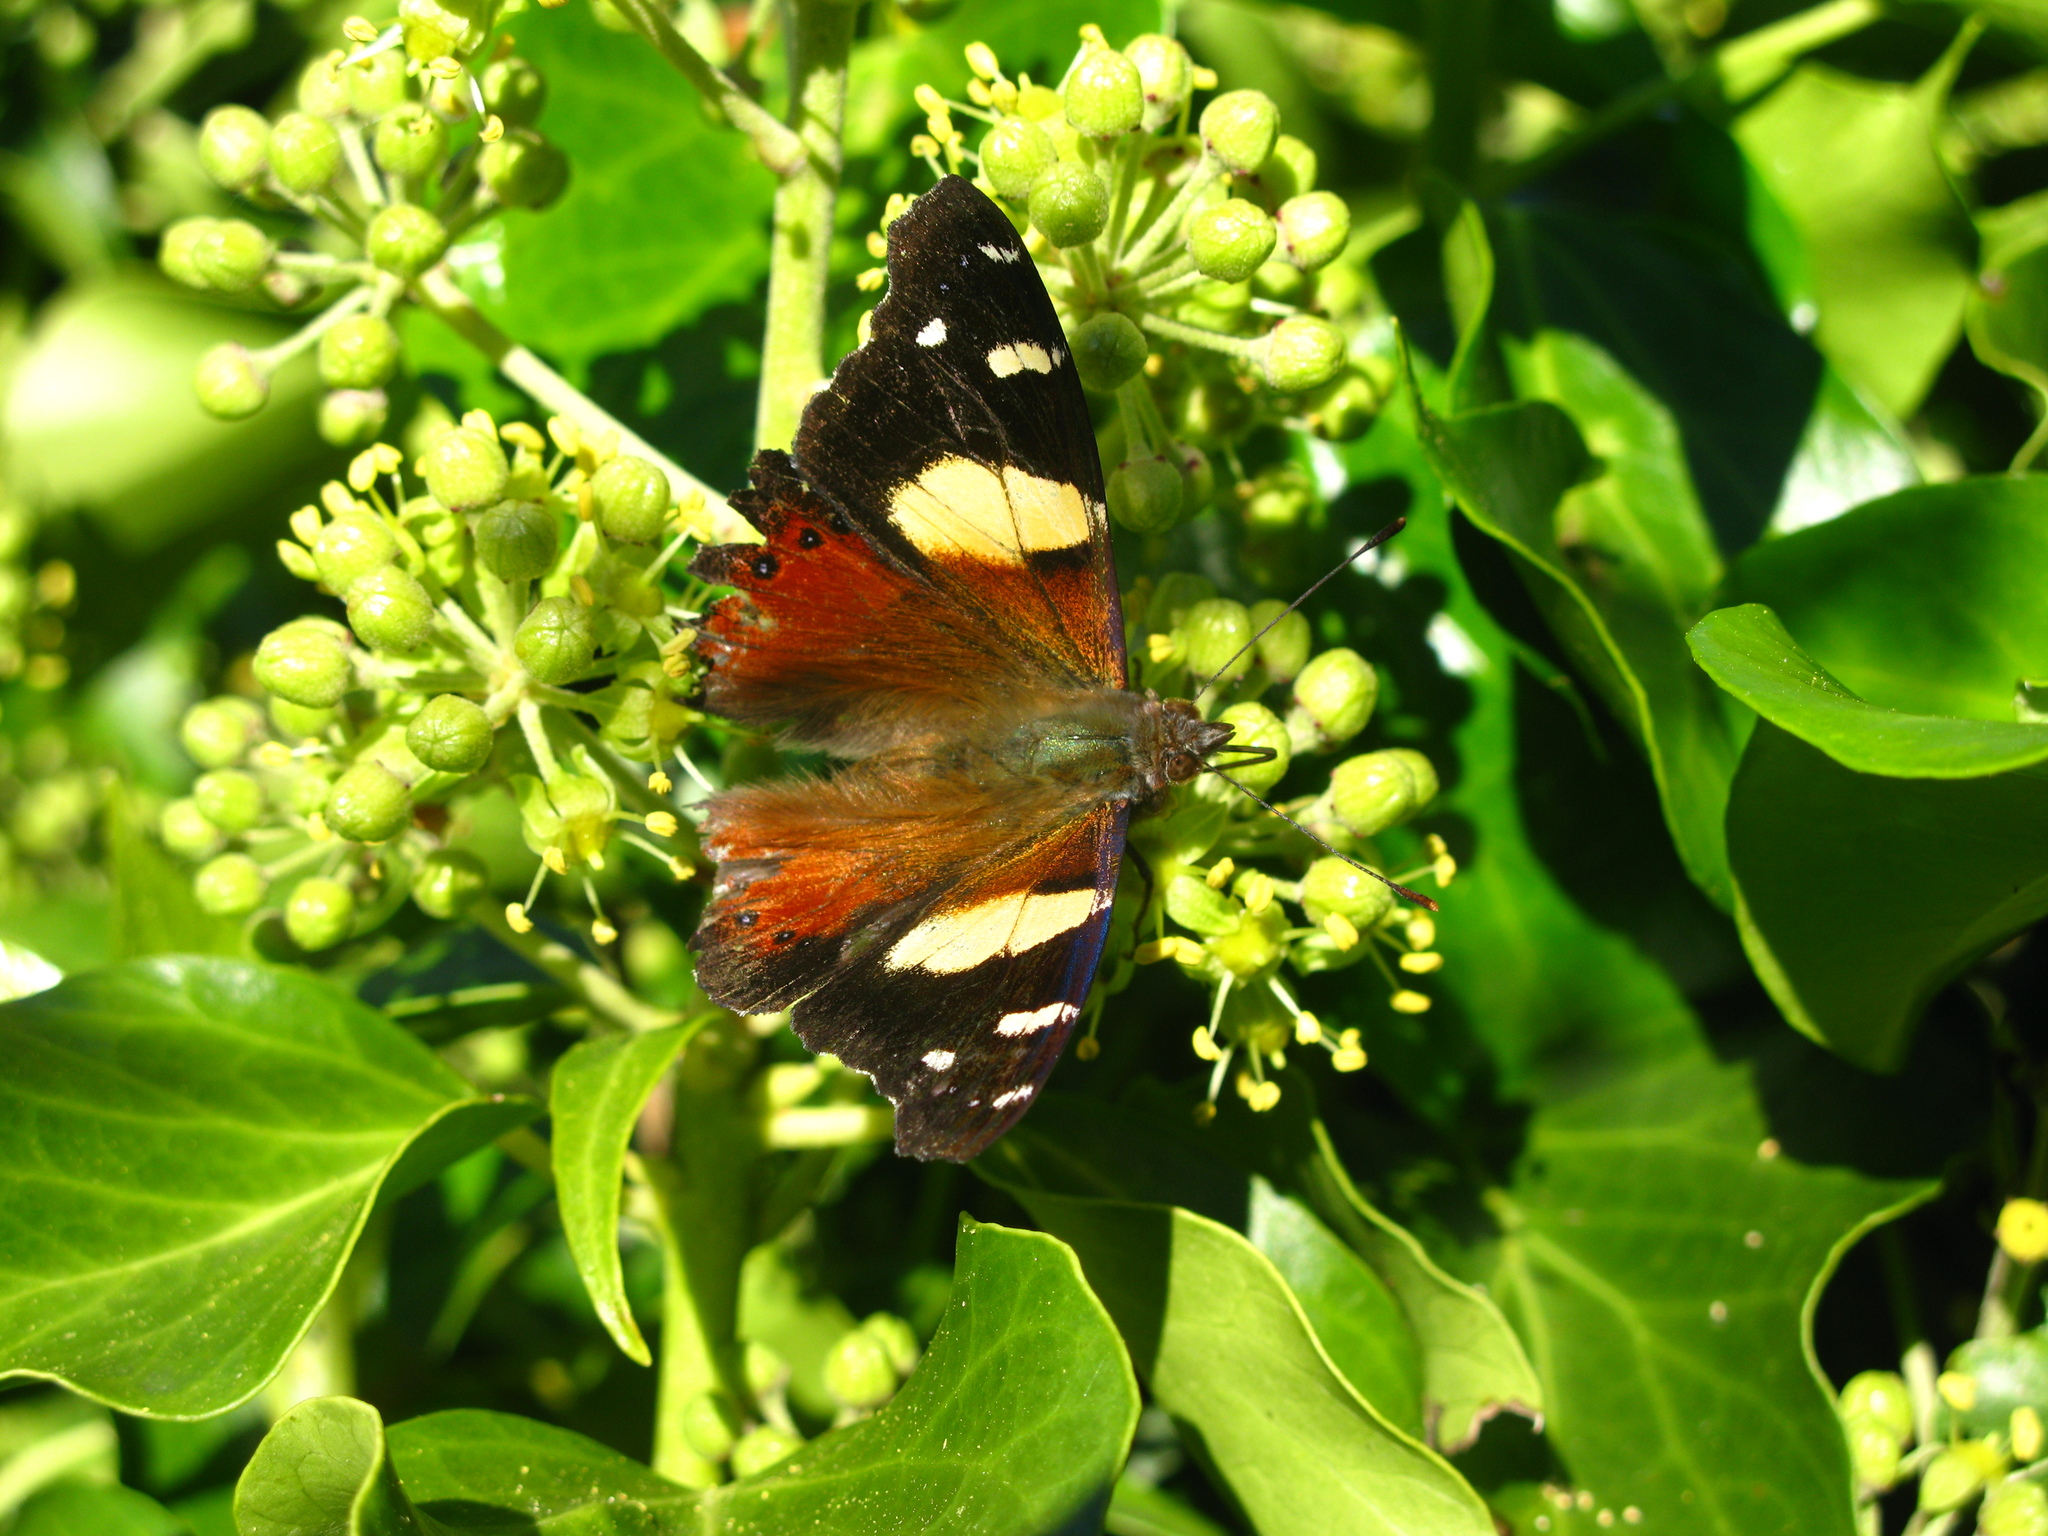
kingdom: Animalia
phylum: Arthropoda
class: Insecta
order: Lepidoptera
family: Nymphalidae
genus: Vanessa
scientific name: Vanessa itea
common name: Yellow admiral
